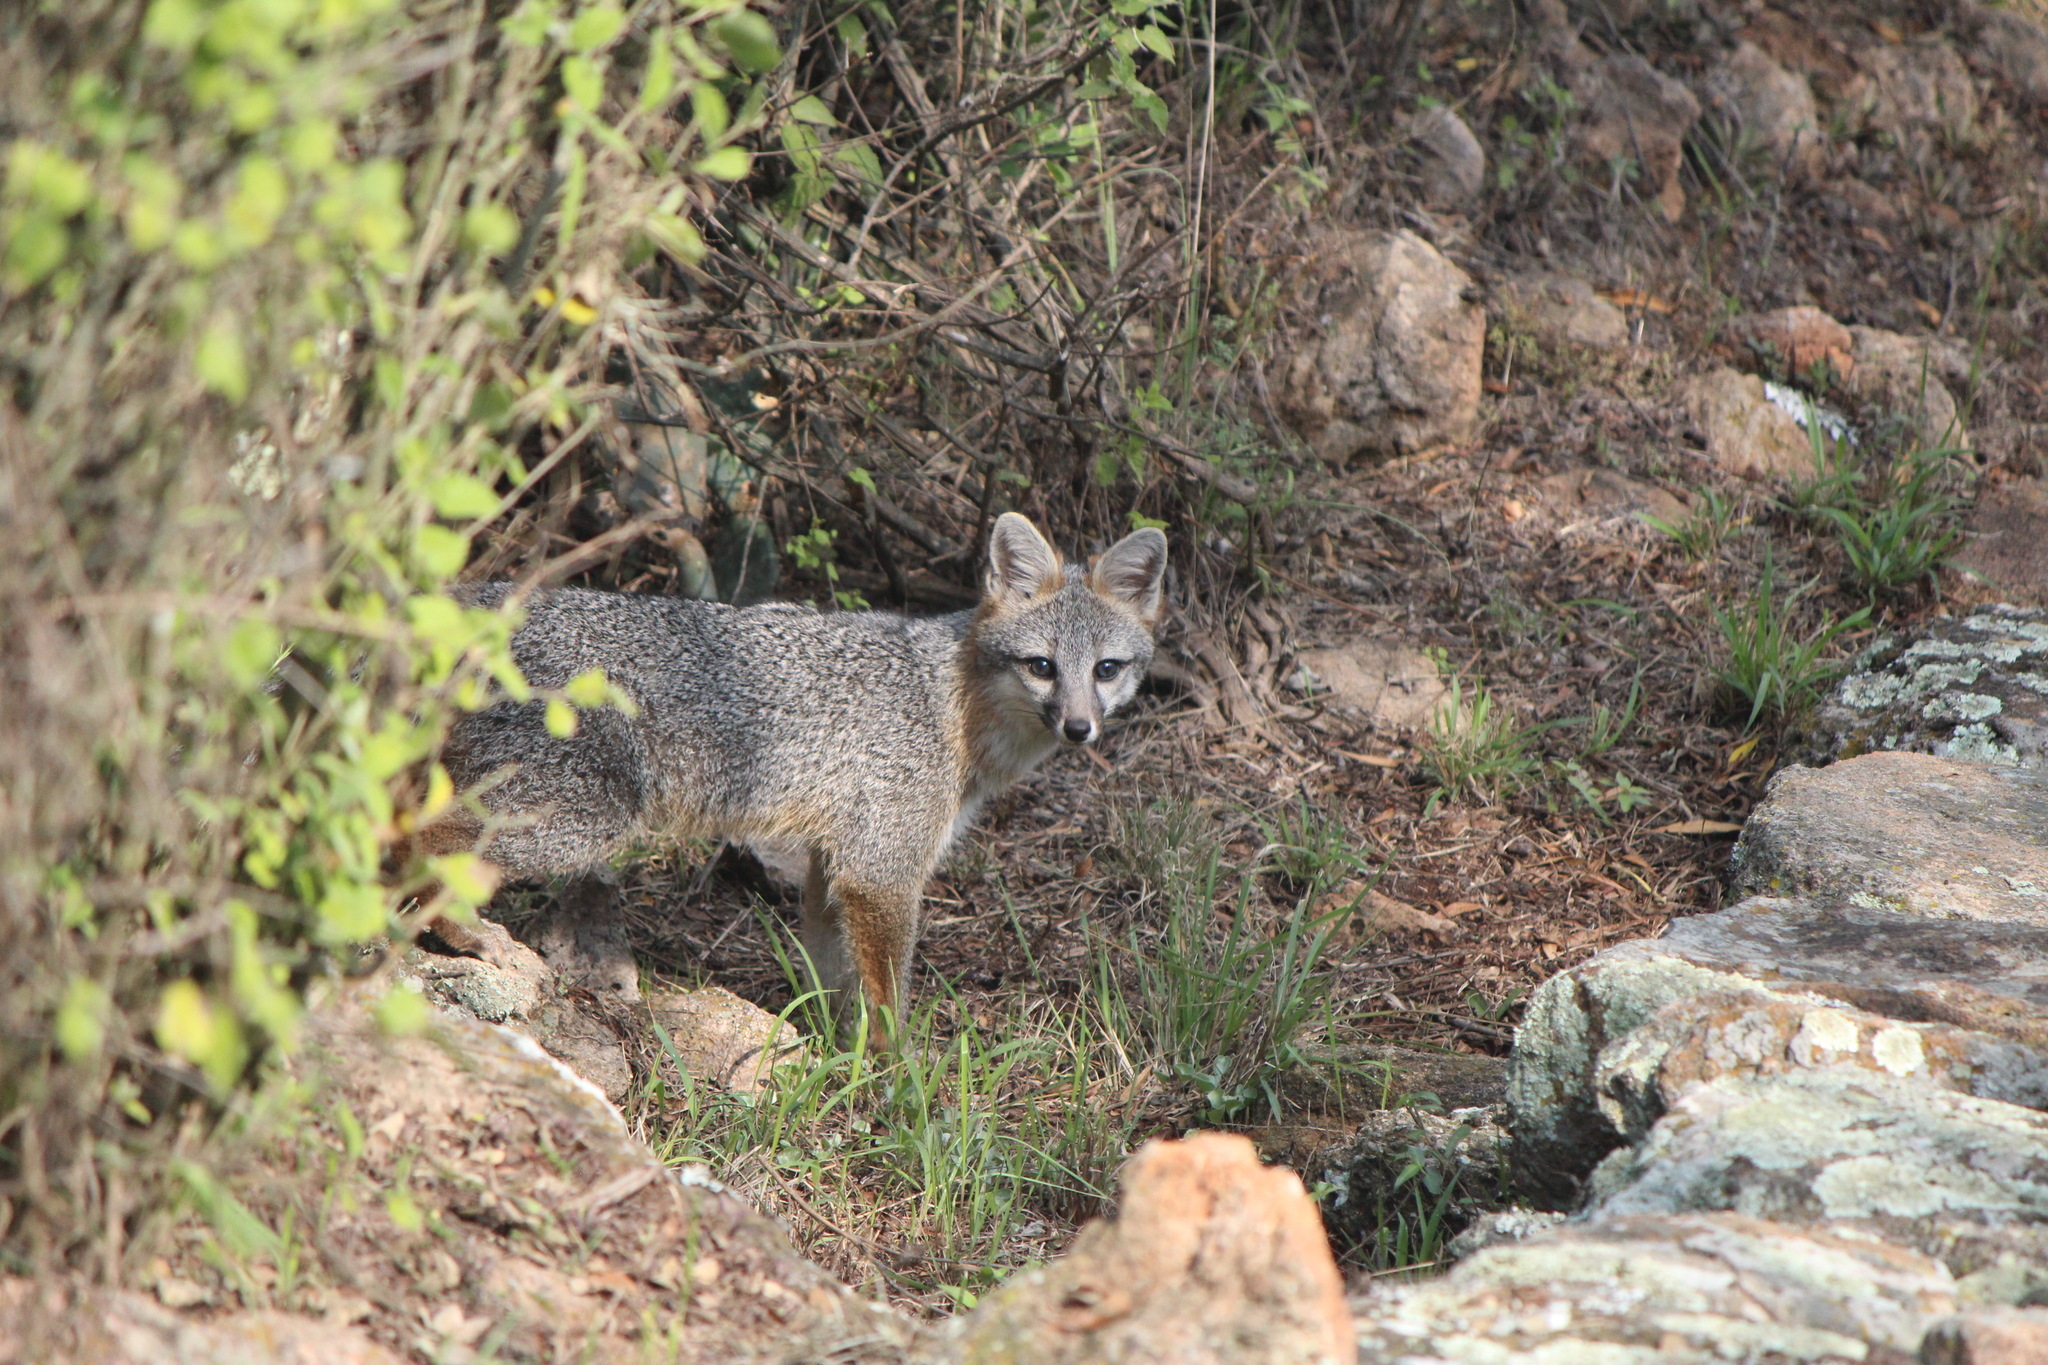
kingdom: Animalia
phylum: Chordata
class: Mammalia
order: Carnivora
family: Canidae
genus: Urocyon
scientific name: Urocyon cinereoargenteus
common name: Gray fox
